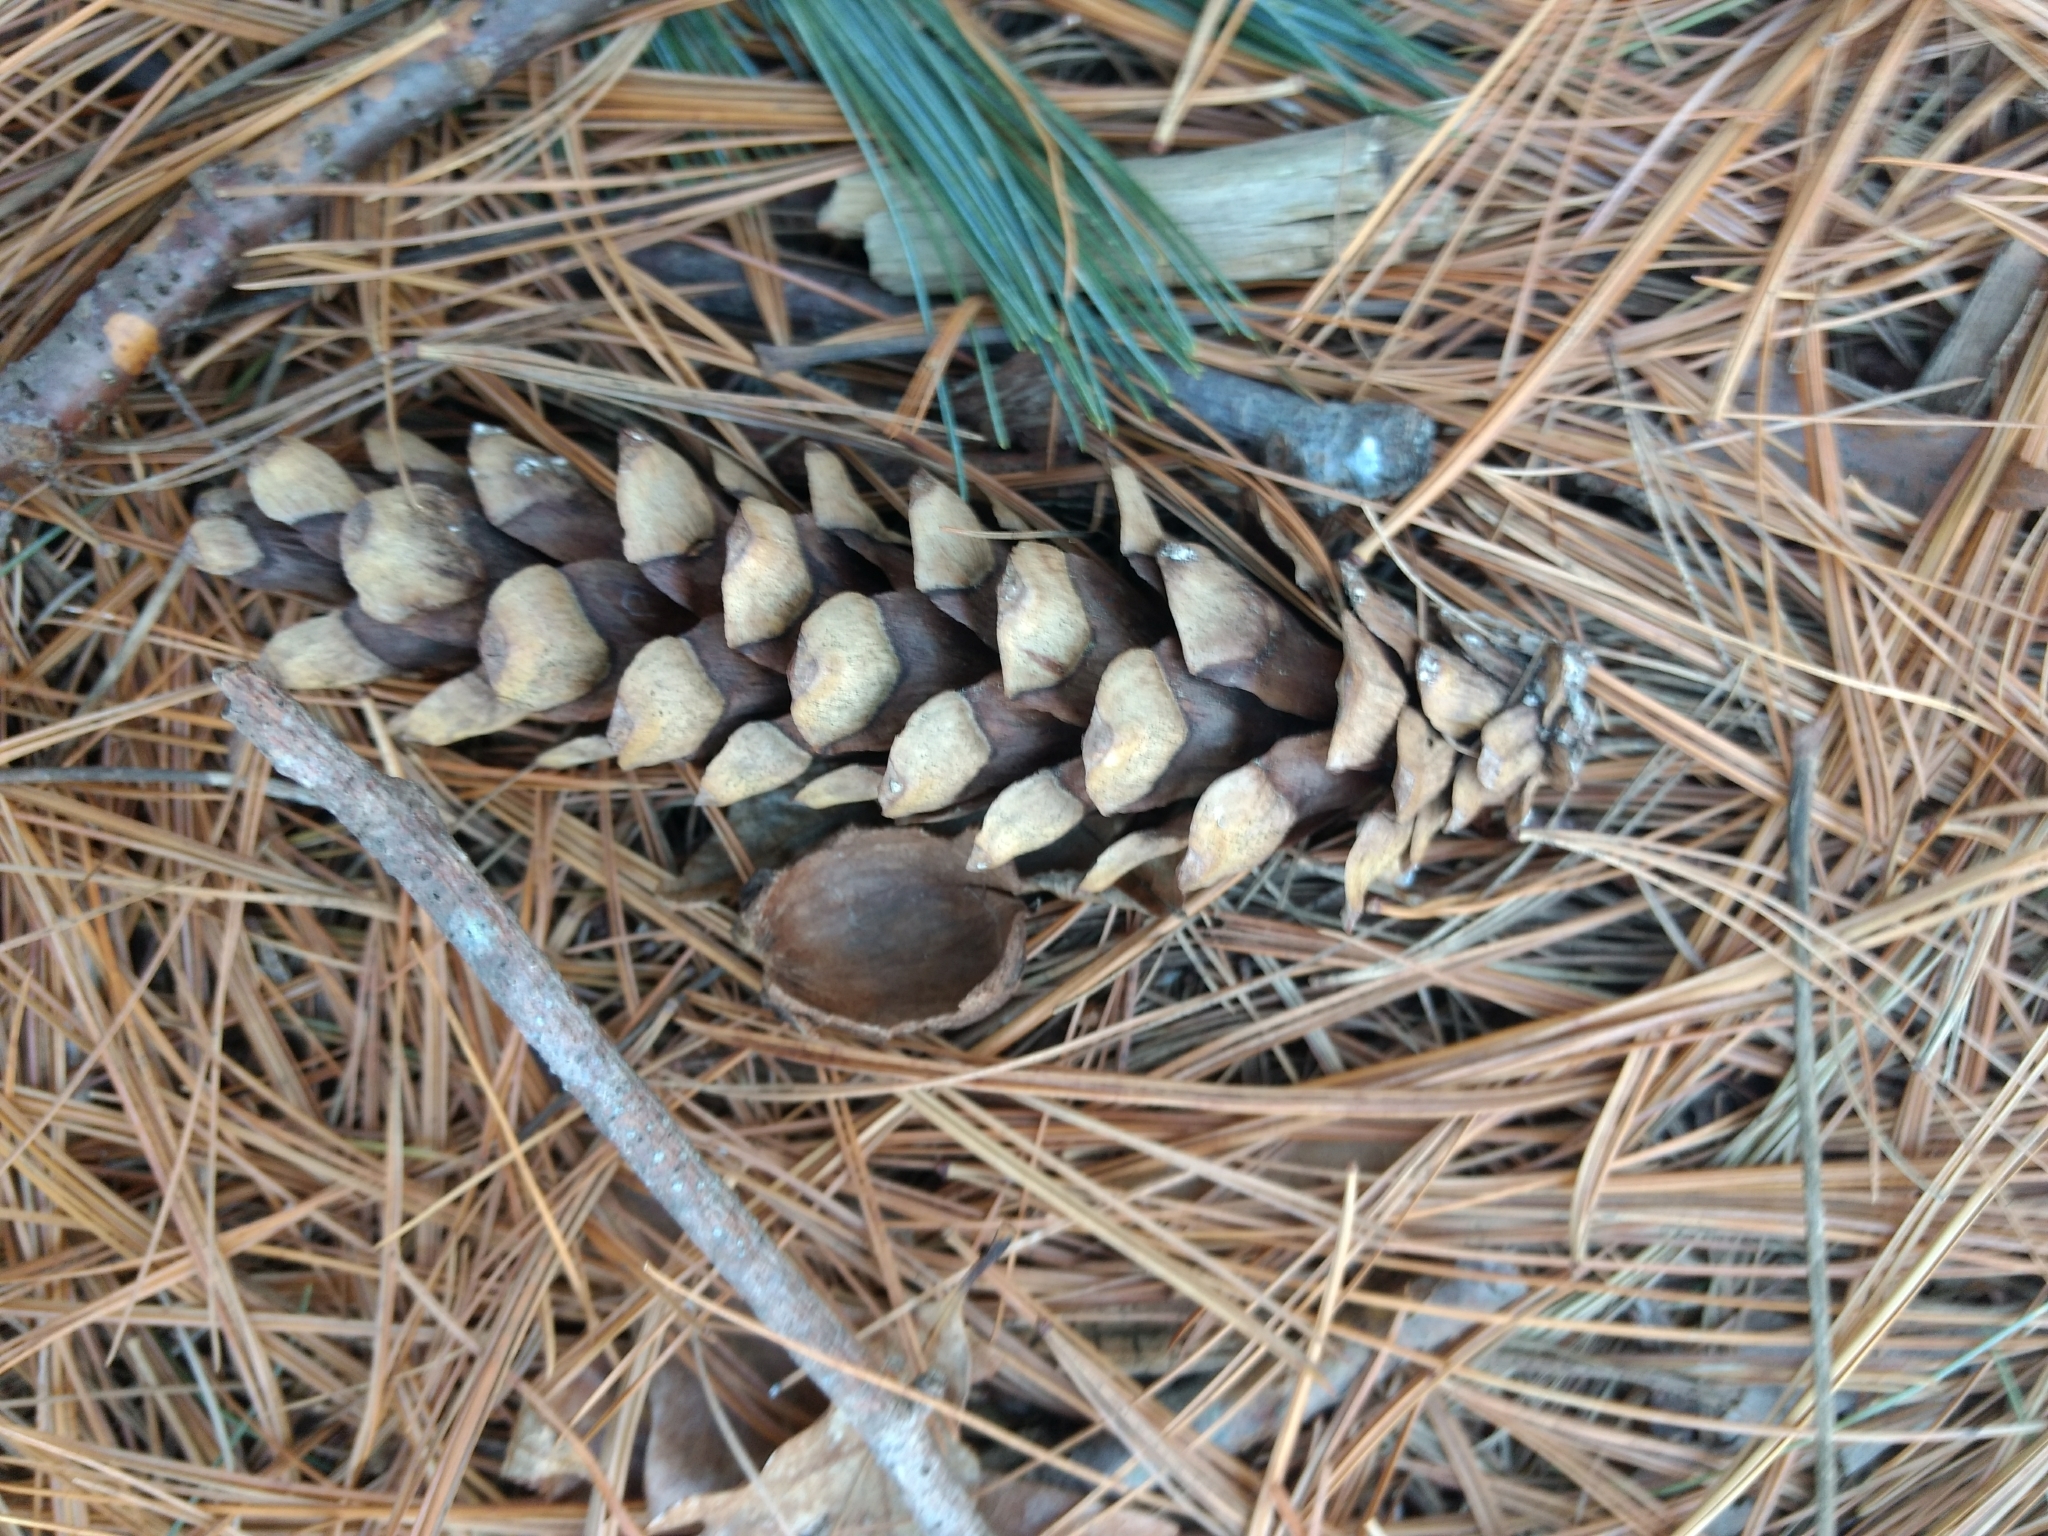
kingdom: Plantae
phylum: Tracheophyta
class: Pinopsida
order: Pinales
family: Pinaceae
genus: Pinus
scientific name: Pinus strobus
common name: Weymouth pine
